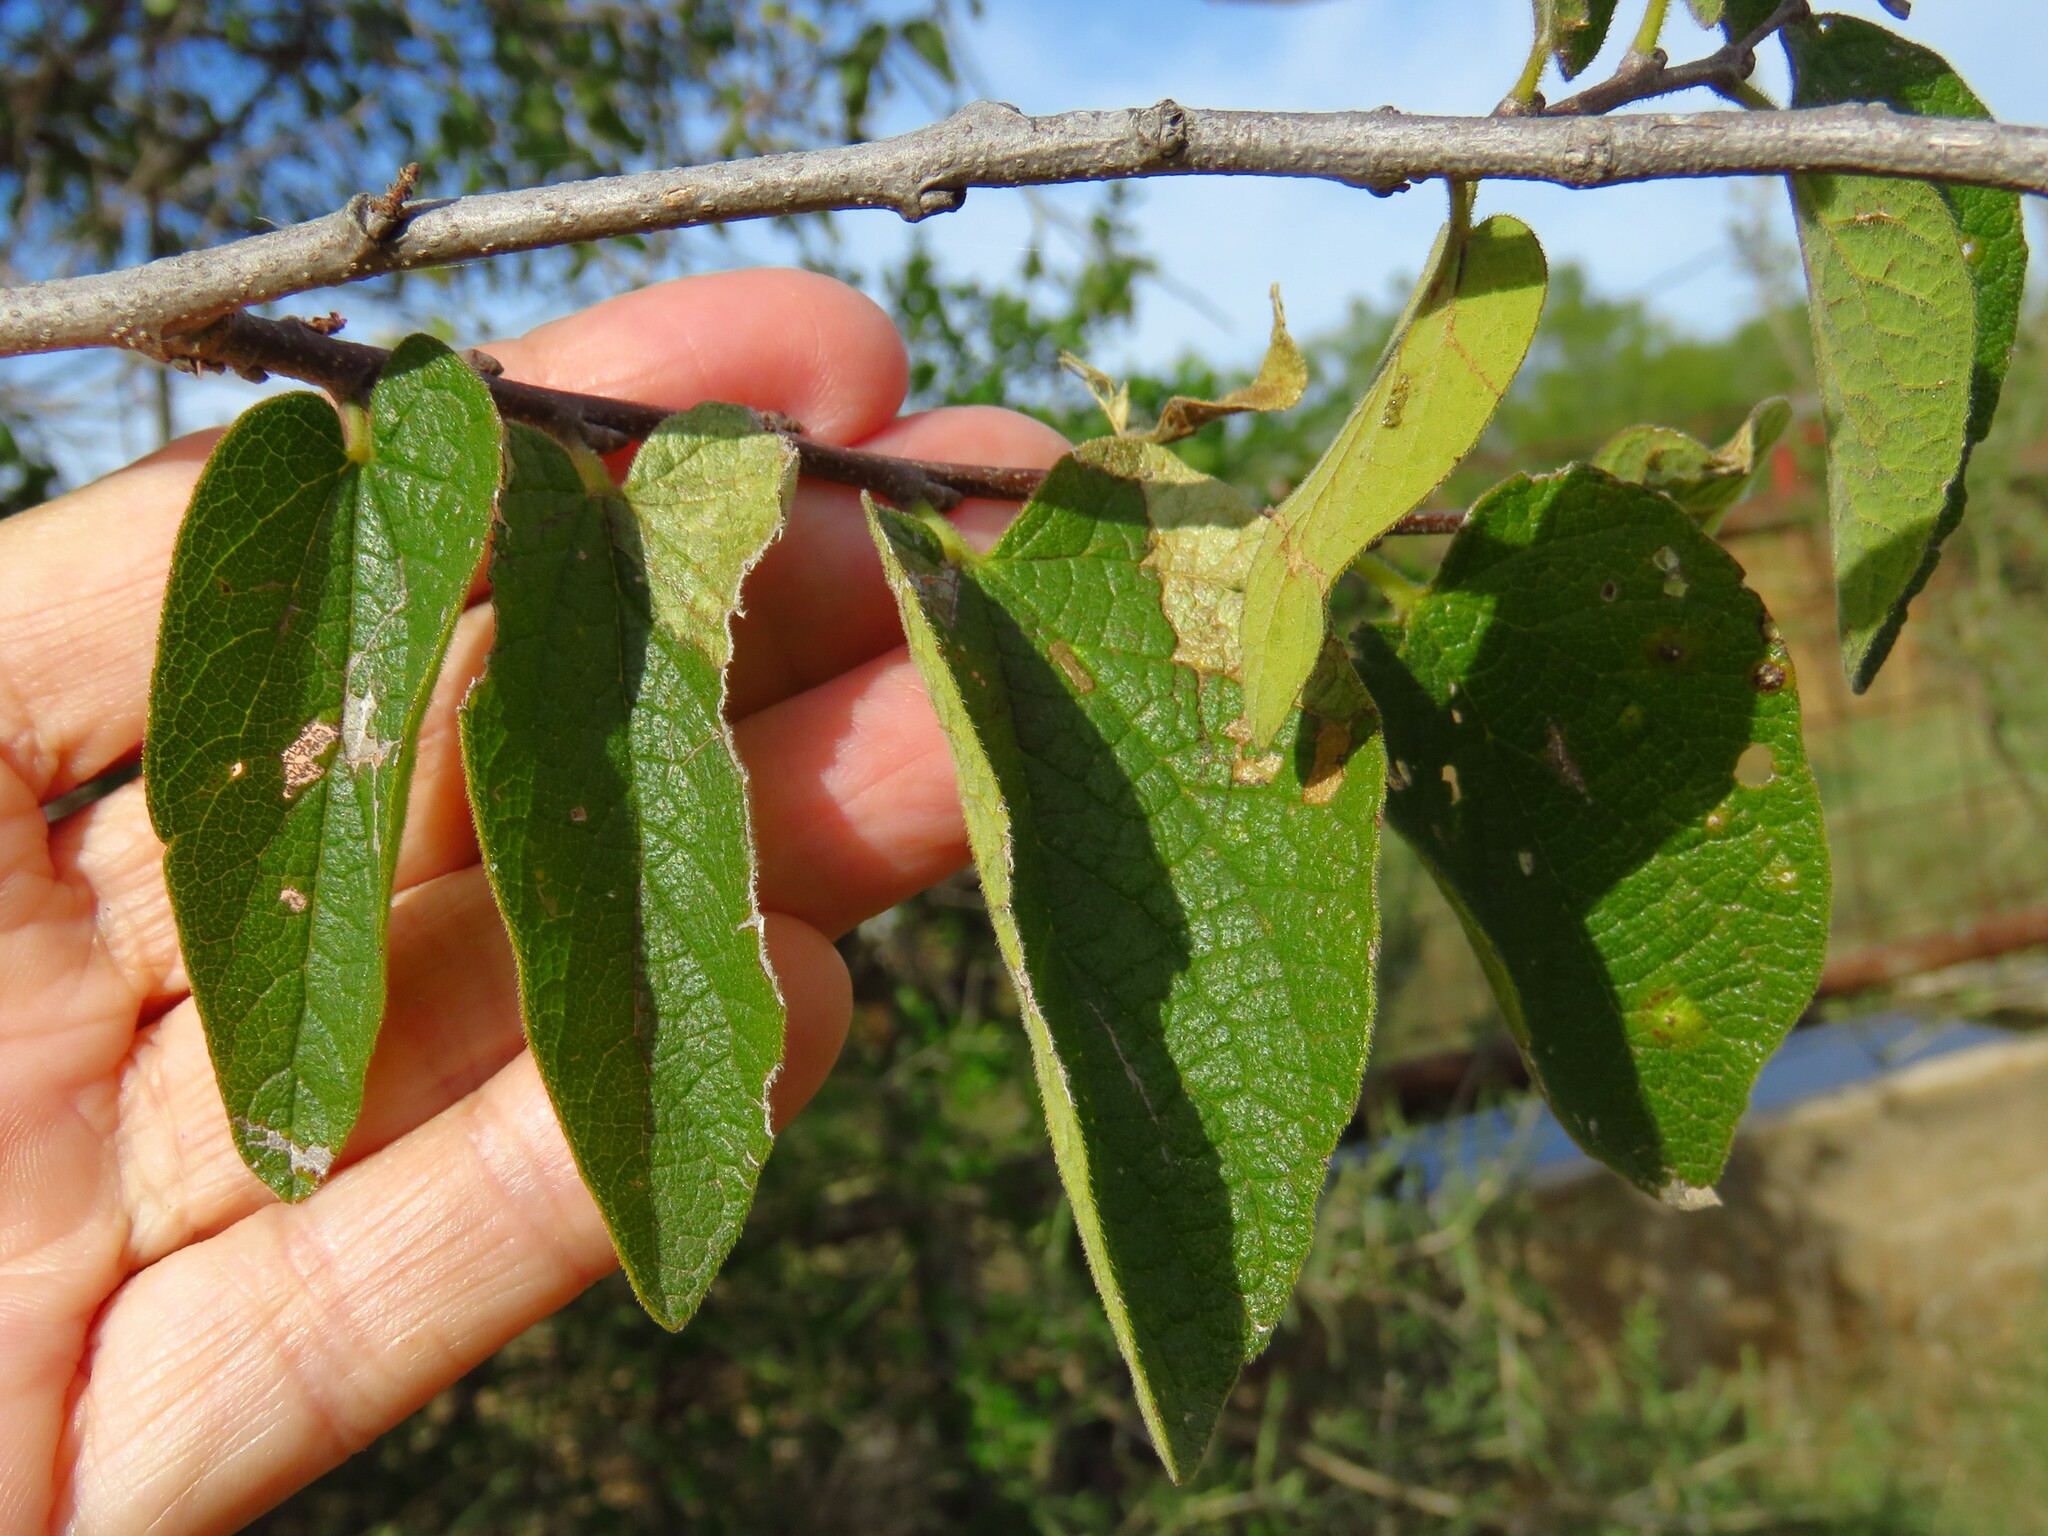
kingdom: Plantae
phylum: Tracheophyta
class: Magnoliopsida
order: Rosales
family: Cannabaceae
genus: Celtis
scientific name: Celtis reticulata
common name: Netleaf hackberry
